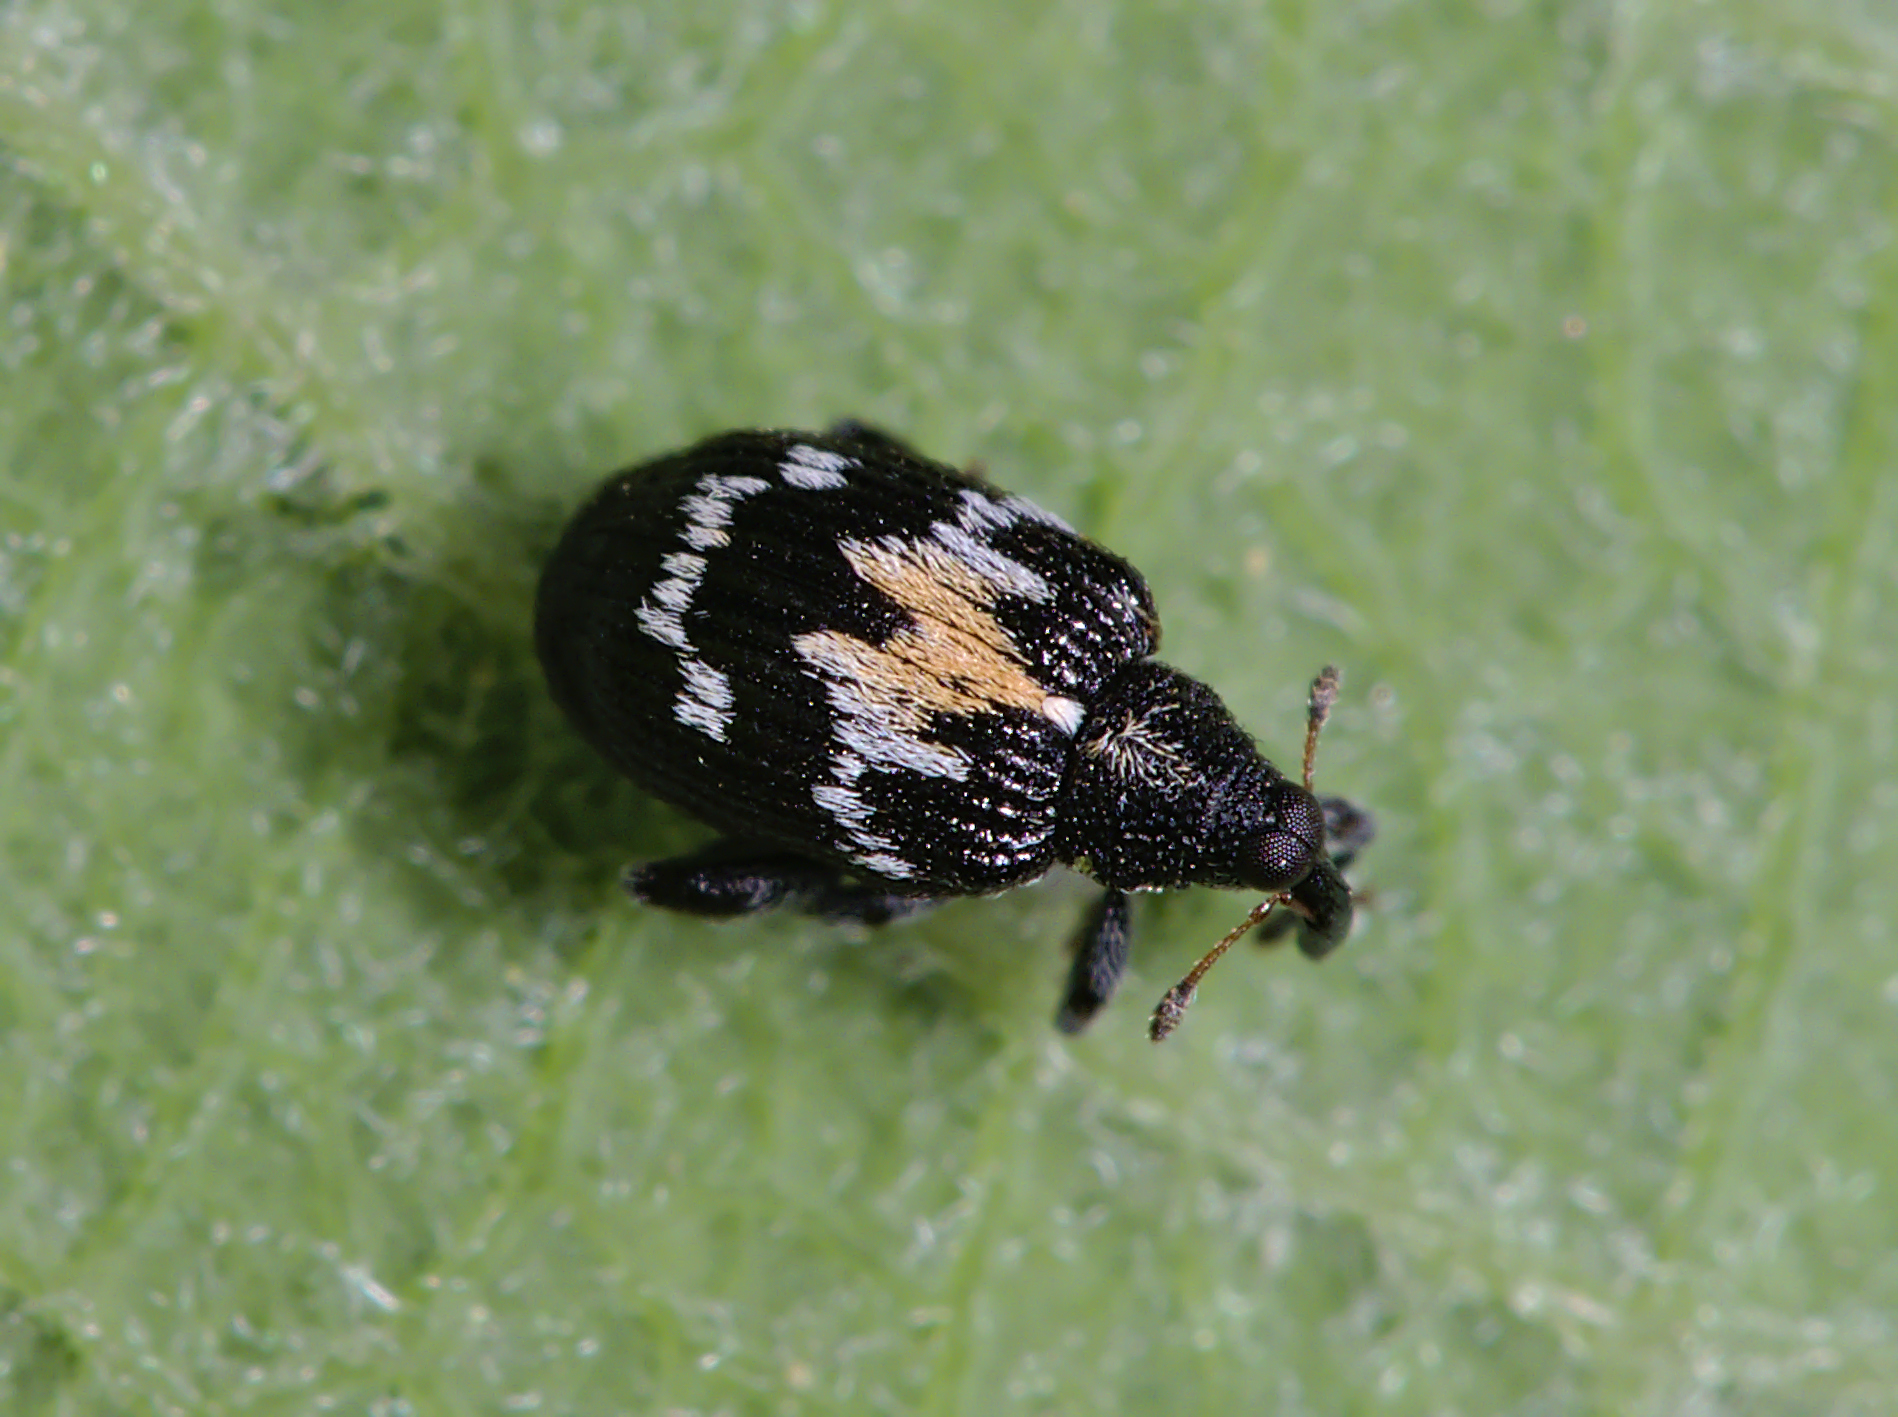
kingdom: Animalia
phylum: Arthropoda
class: Insecta
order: Coleoptera
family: Curculionidae
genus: Tachyerges
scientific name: Tachyerges salicis
